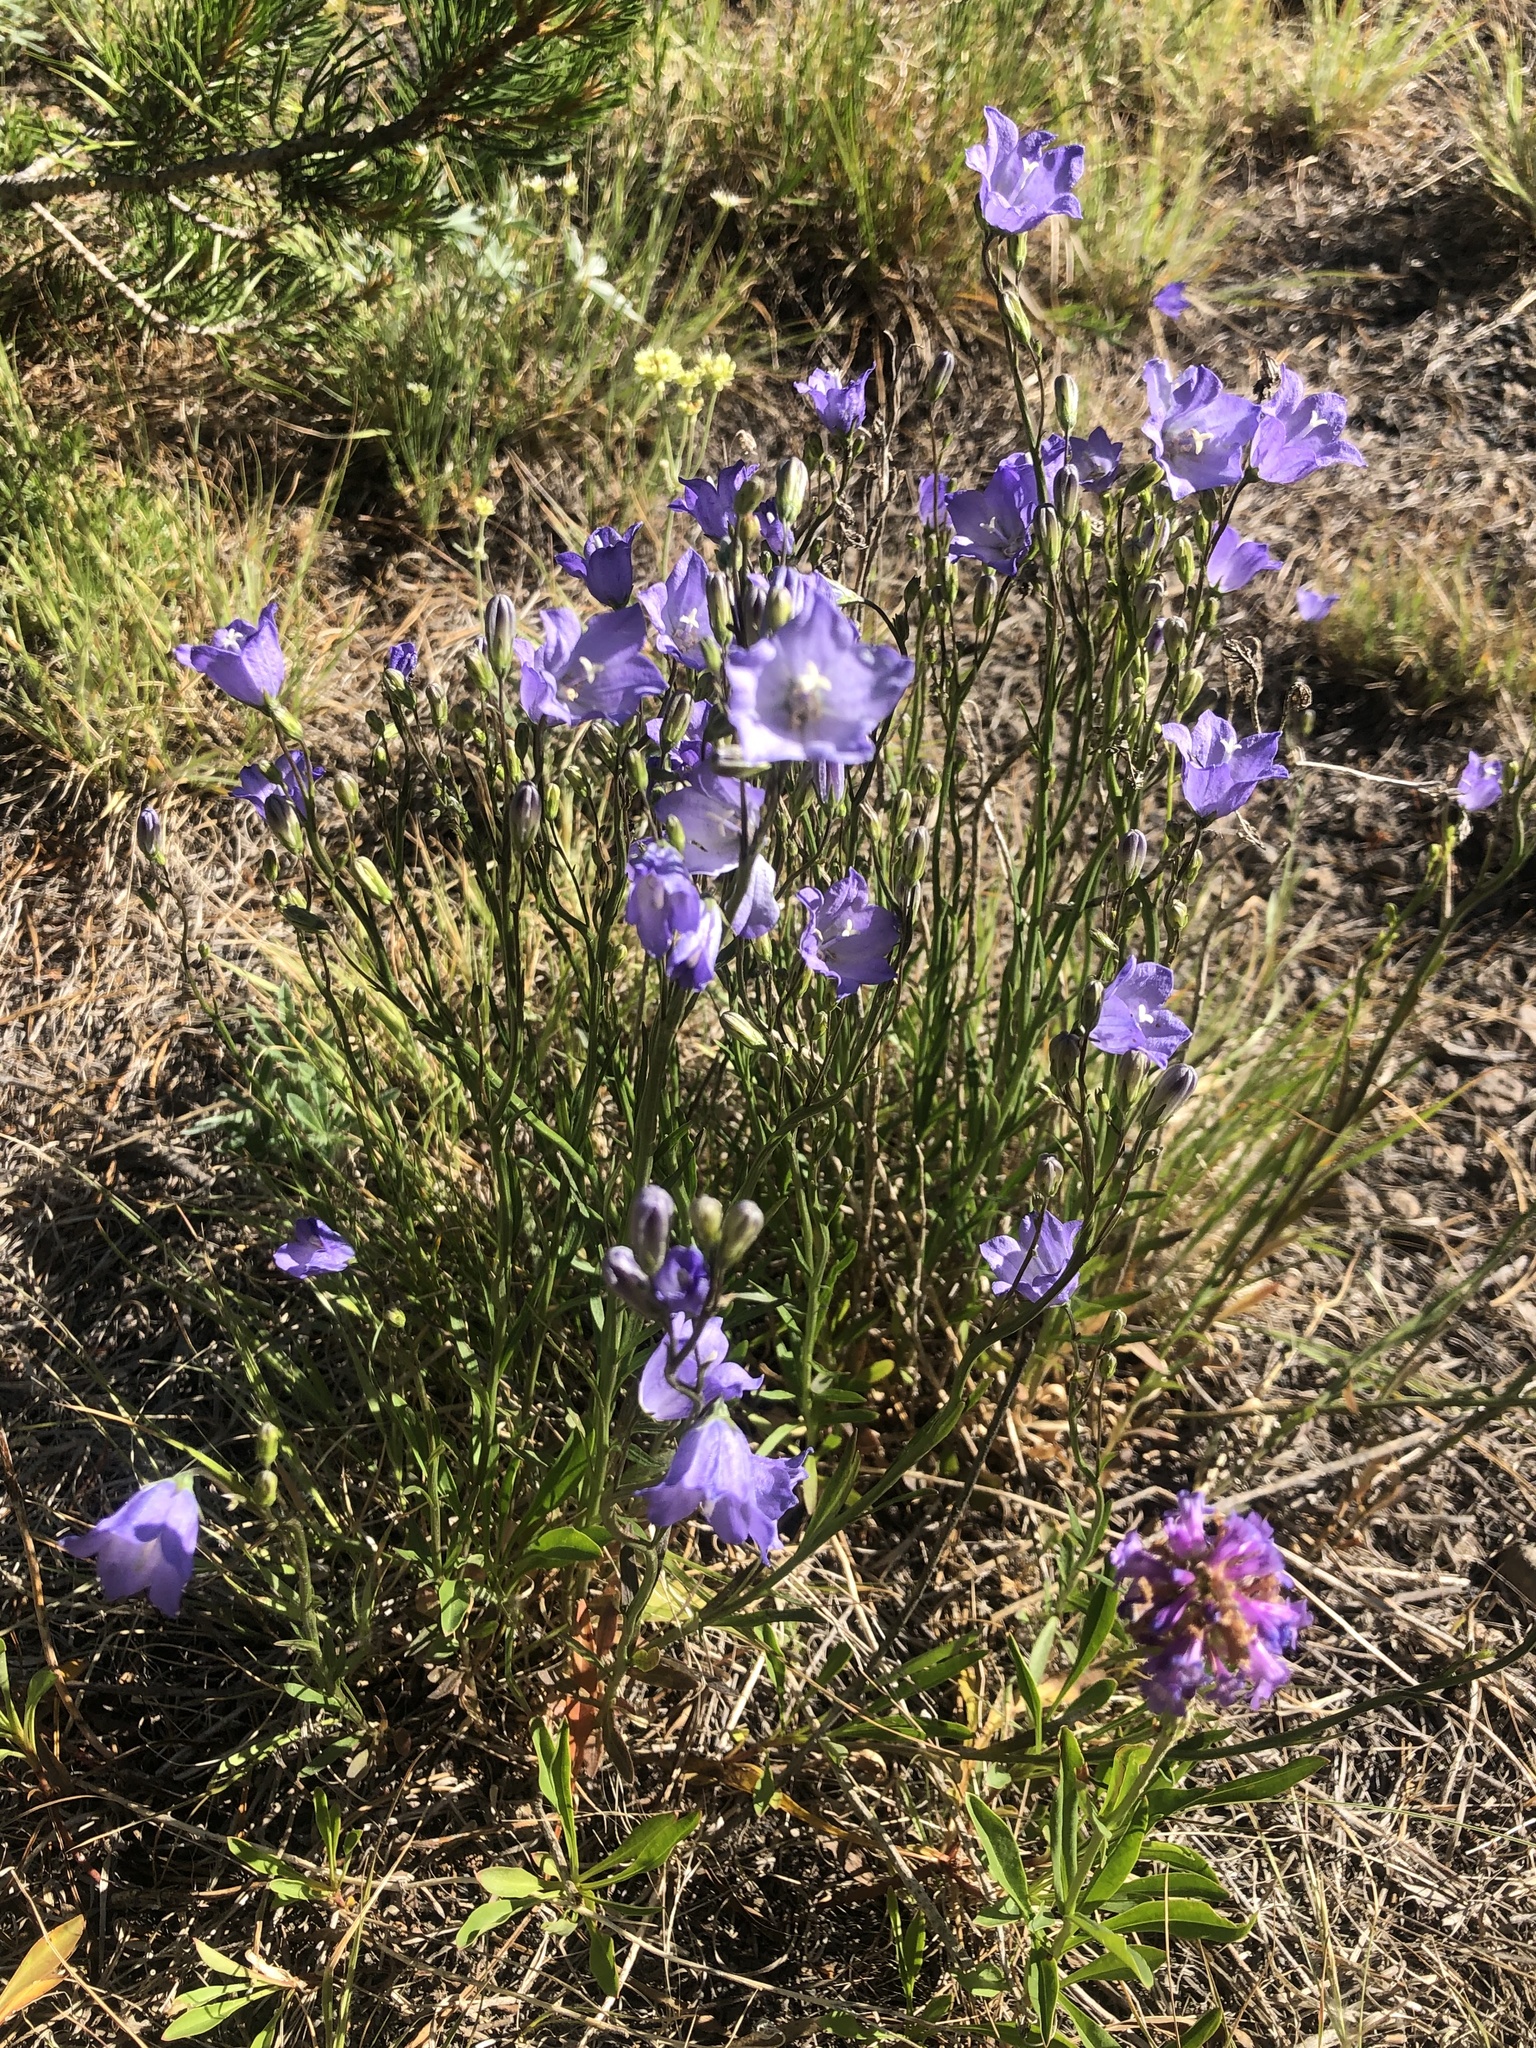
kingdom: Plantae
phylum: Tracheophyta
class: Magnoliopsida
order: Asterales
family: Campanulaceae
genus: Campanula
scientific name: Campanula petiolata
